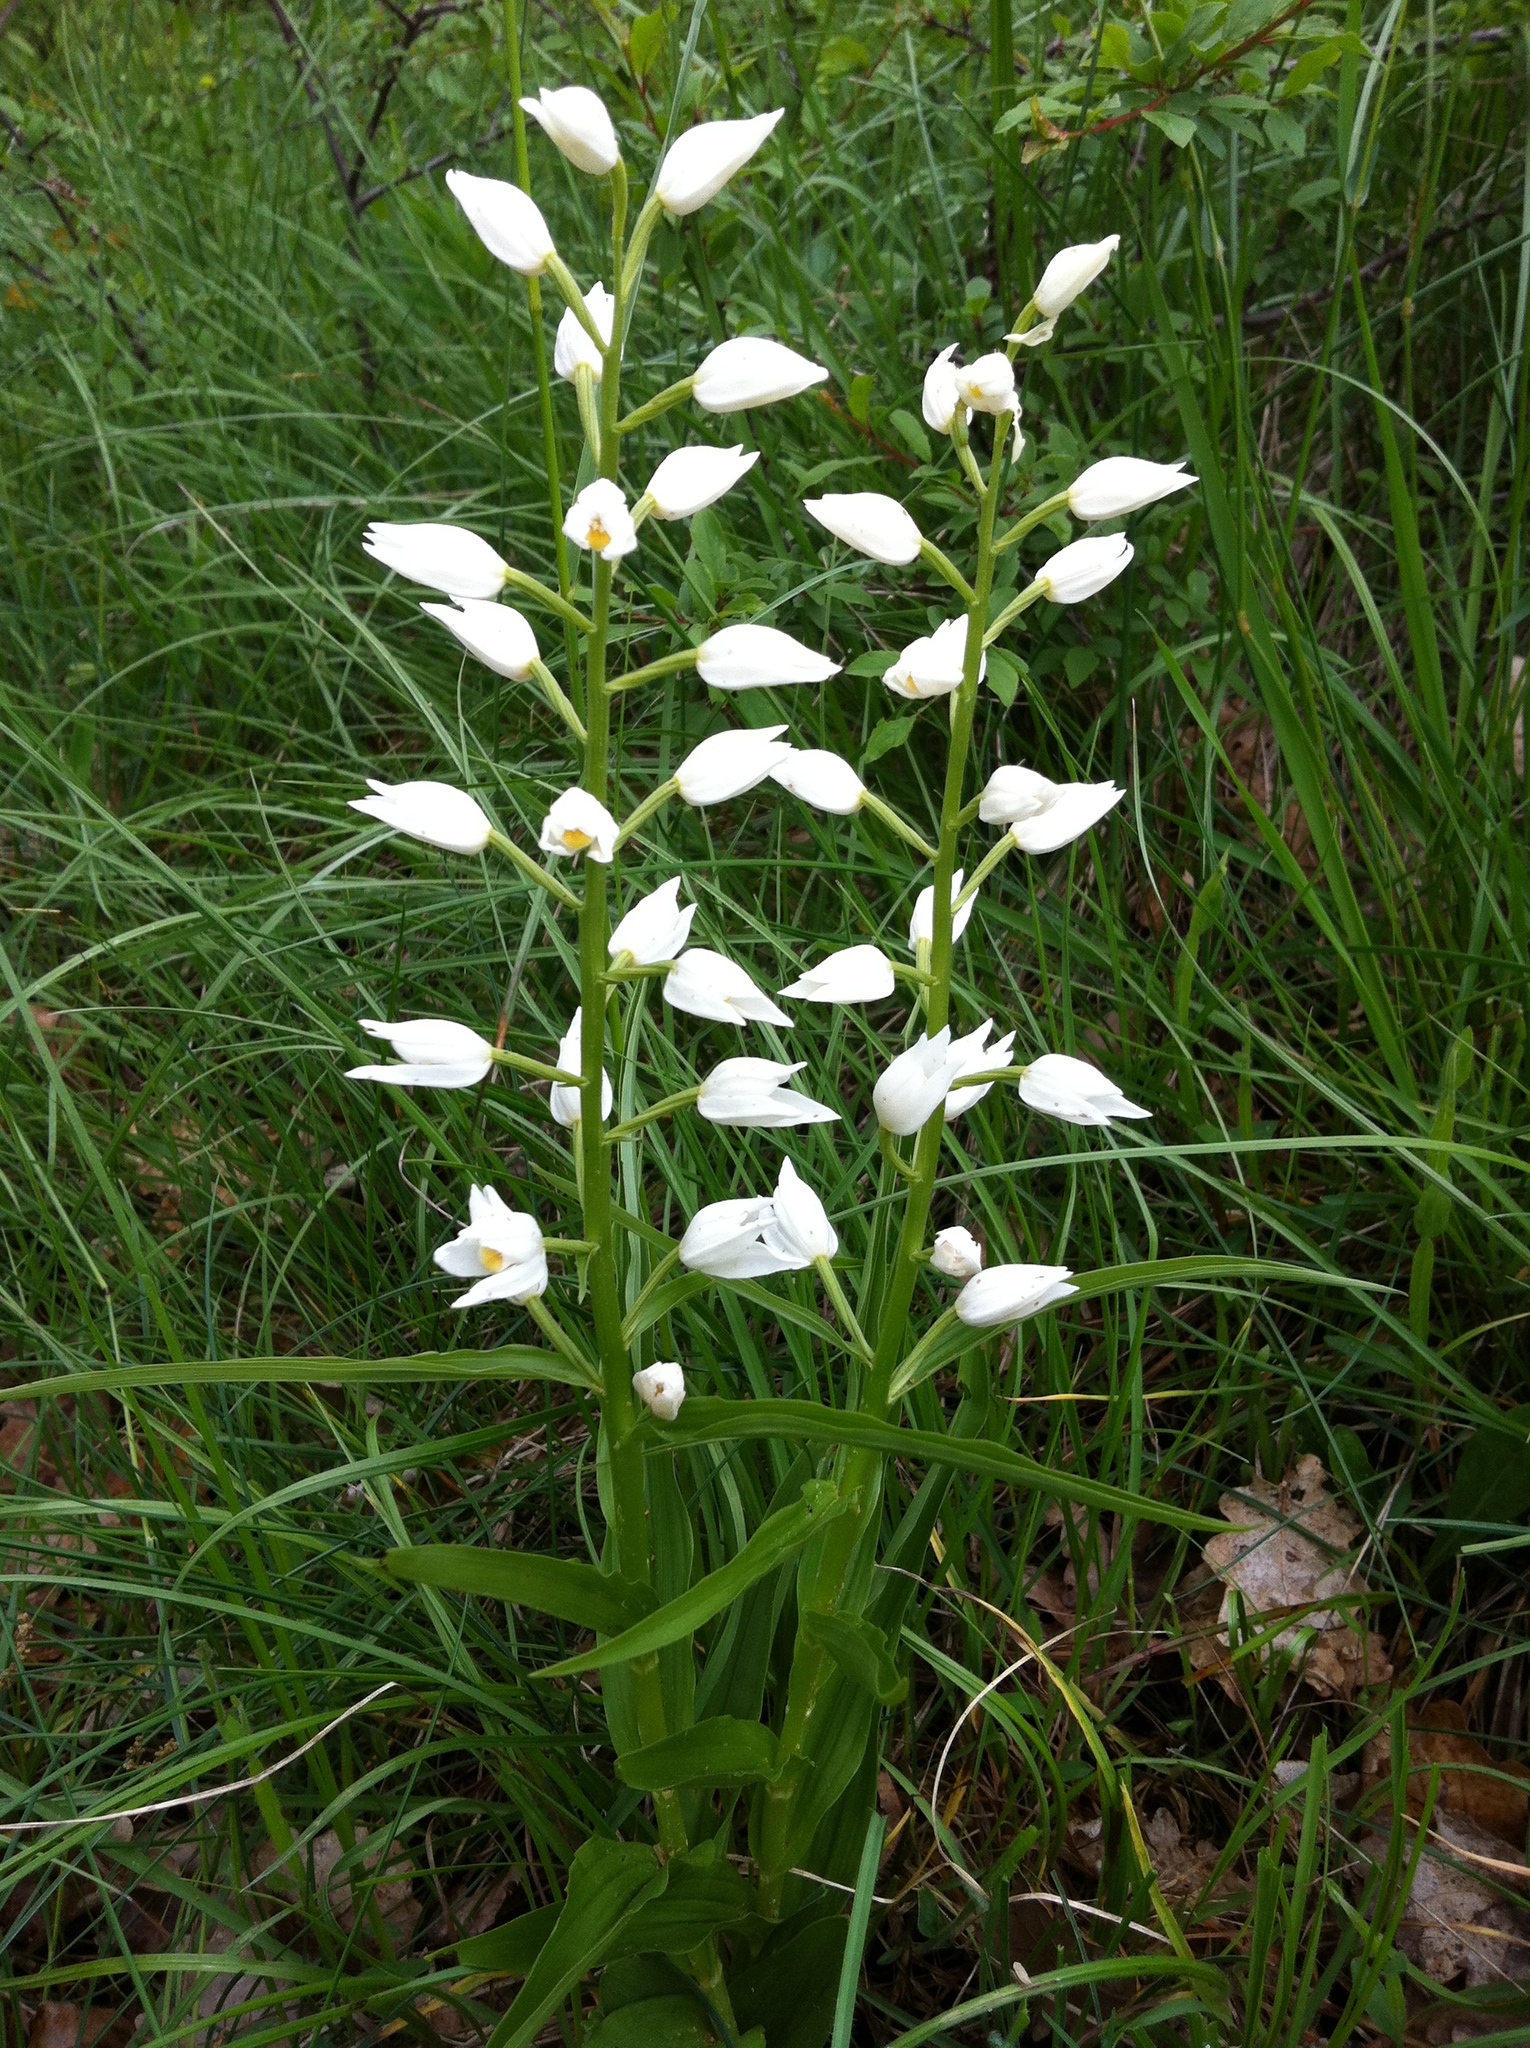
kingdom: Plantae
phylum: Tracheophyta
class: Liliopsida
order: Asparagales
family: Orchidaceae
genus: Cephalanthera
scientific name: Cephalanthera longifolia
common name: Narrow-leaved helleborine
